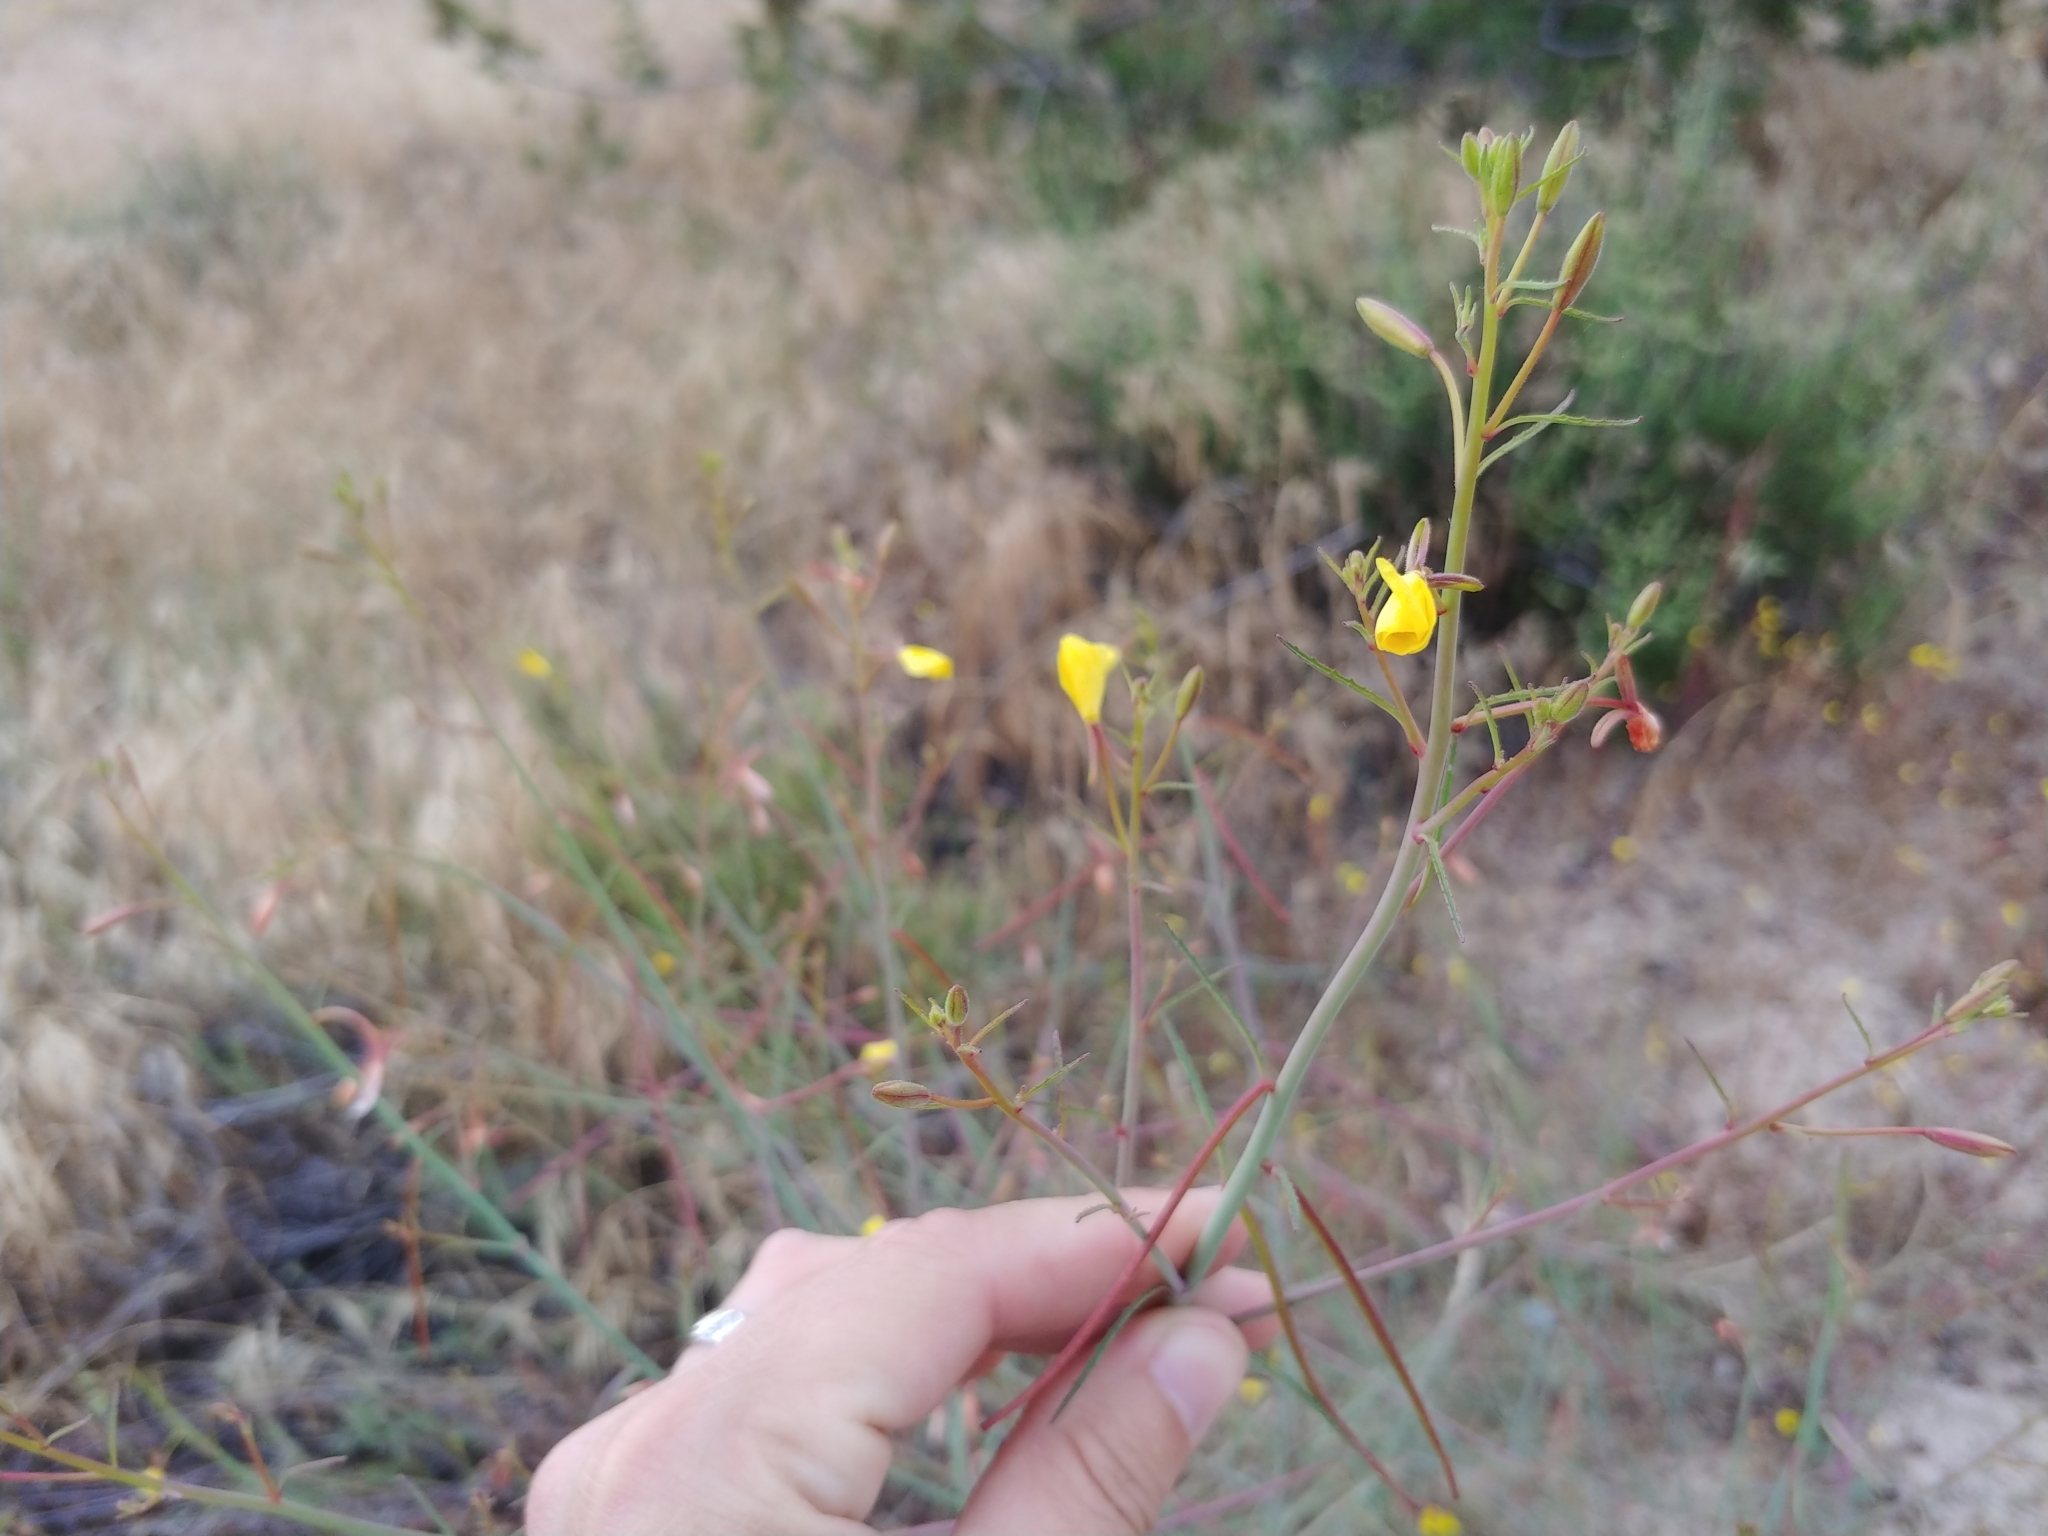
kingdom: Plantae
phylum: Tracheophyta
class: Magnoliopsida
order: Myrtales
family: Onagraceae
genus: Eulobus
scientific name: Eulobus californicus
